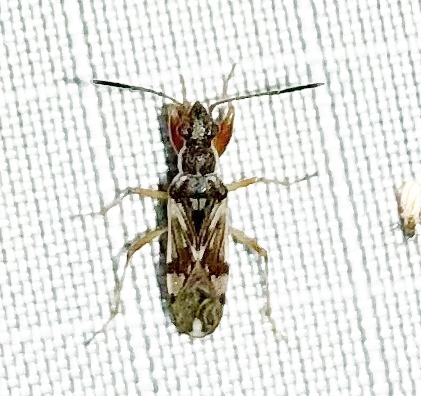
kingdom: Animalia
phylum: Arthropoda
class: Insecta
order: Hemiptera
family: Rhyparochromidae
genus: Neopamera
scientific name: Neopamera bilobata
